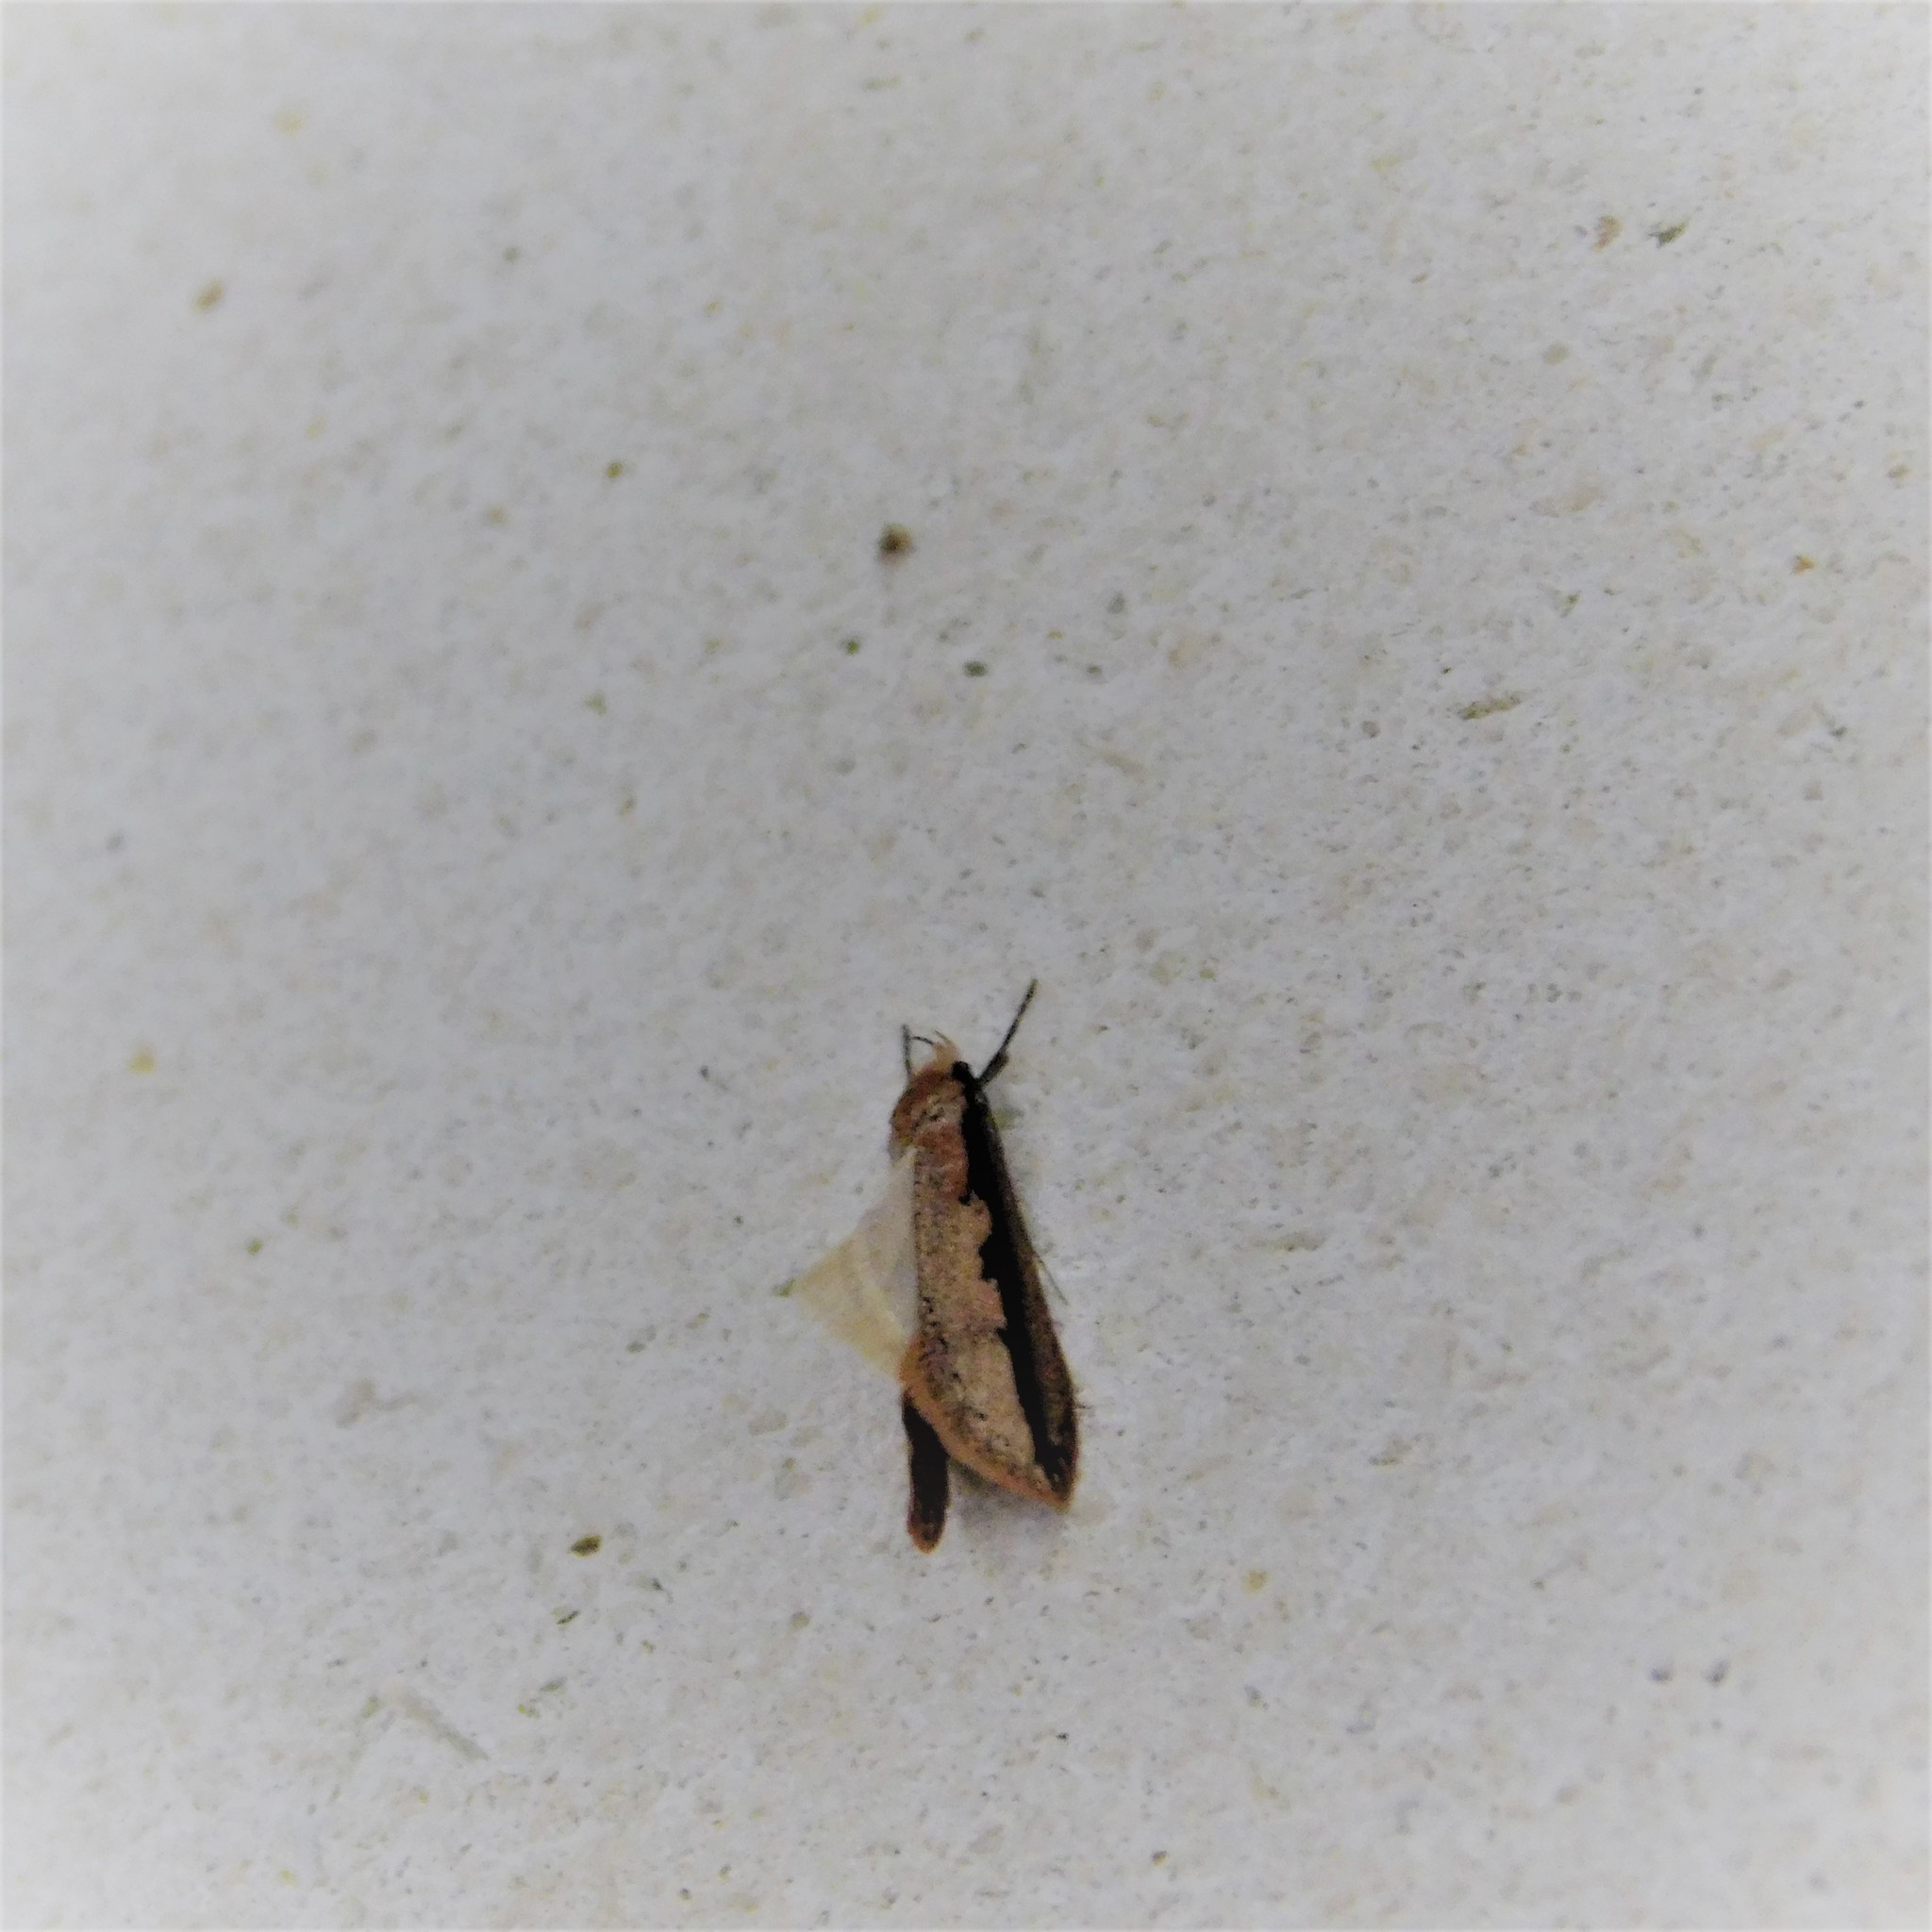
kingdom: Animalia
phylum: Arthropoda
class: Insecta
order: Lepidoptera
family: Oecophoridae
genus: Leptocroca
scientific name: Leptocroca sanguinolenta
